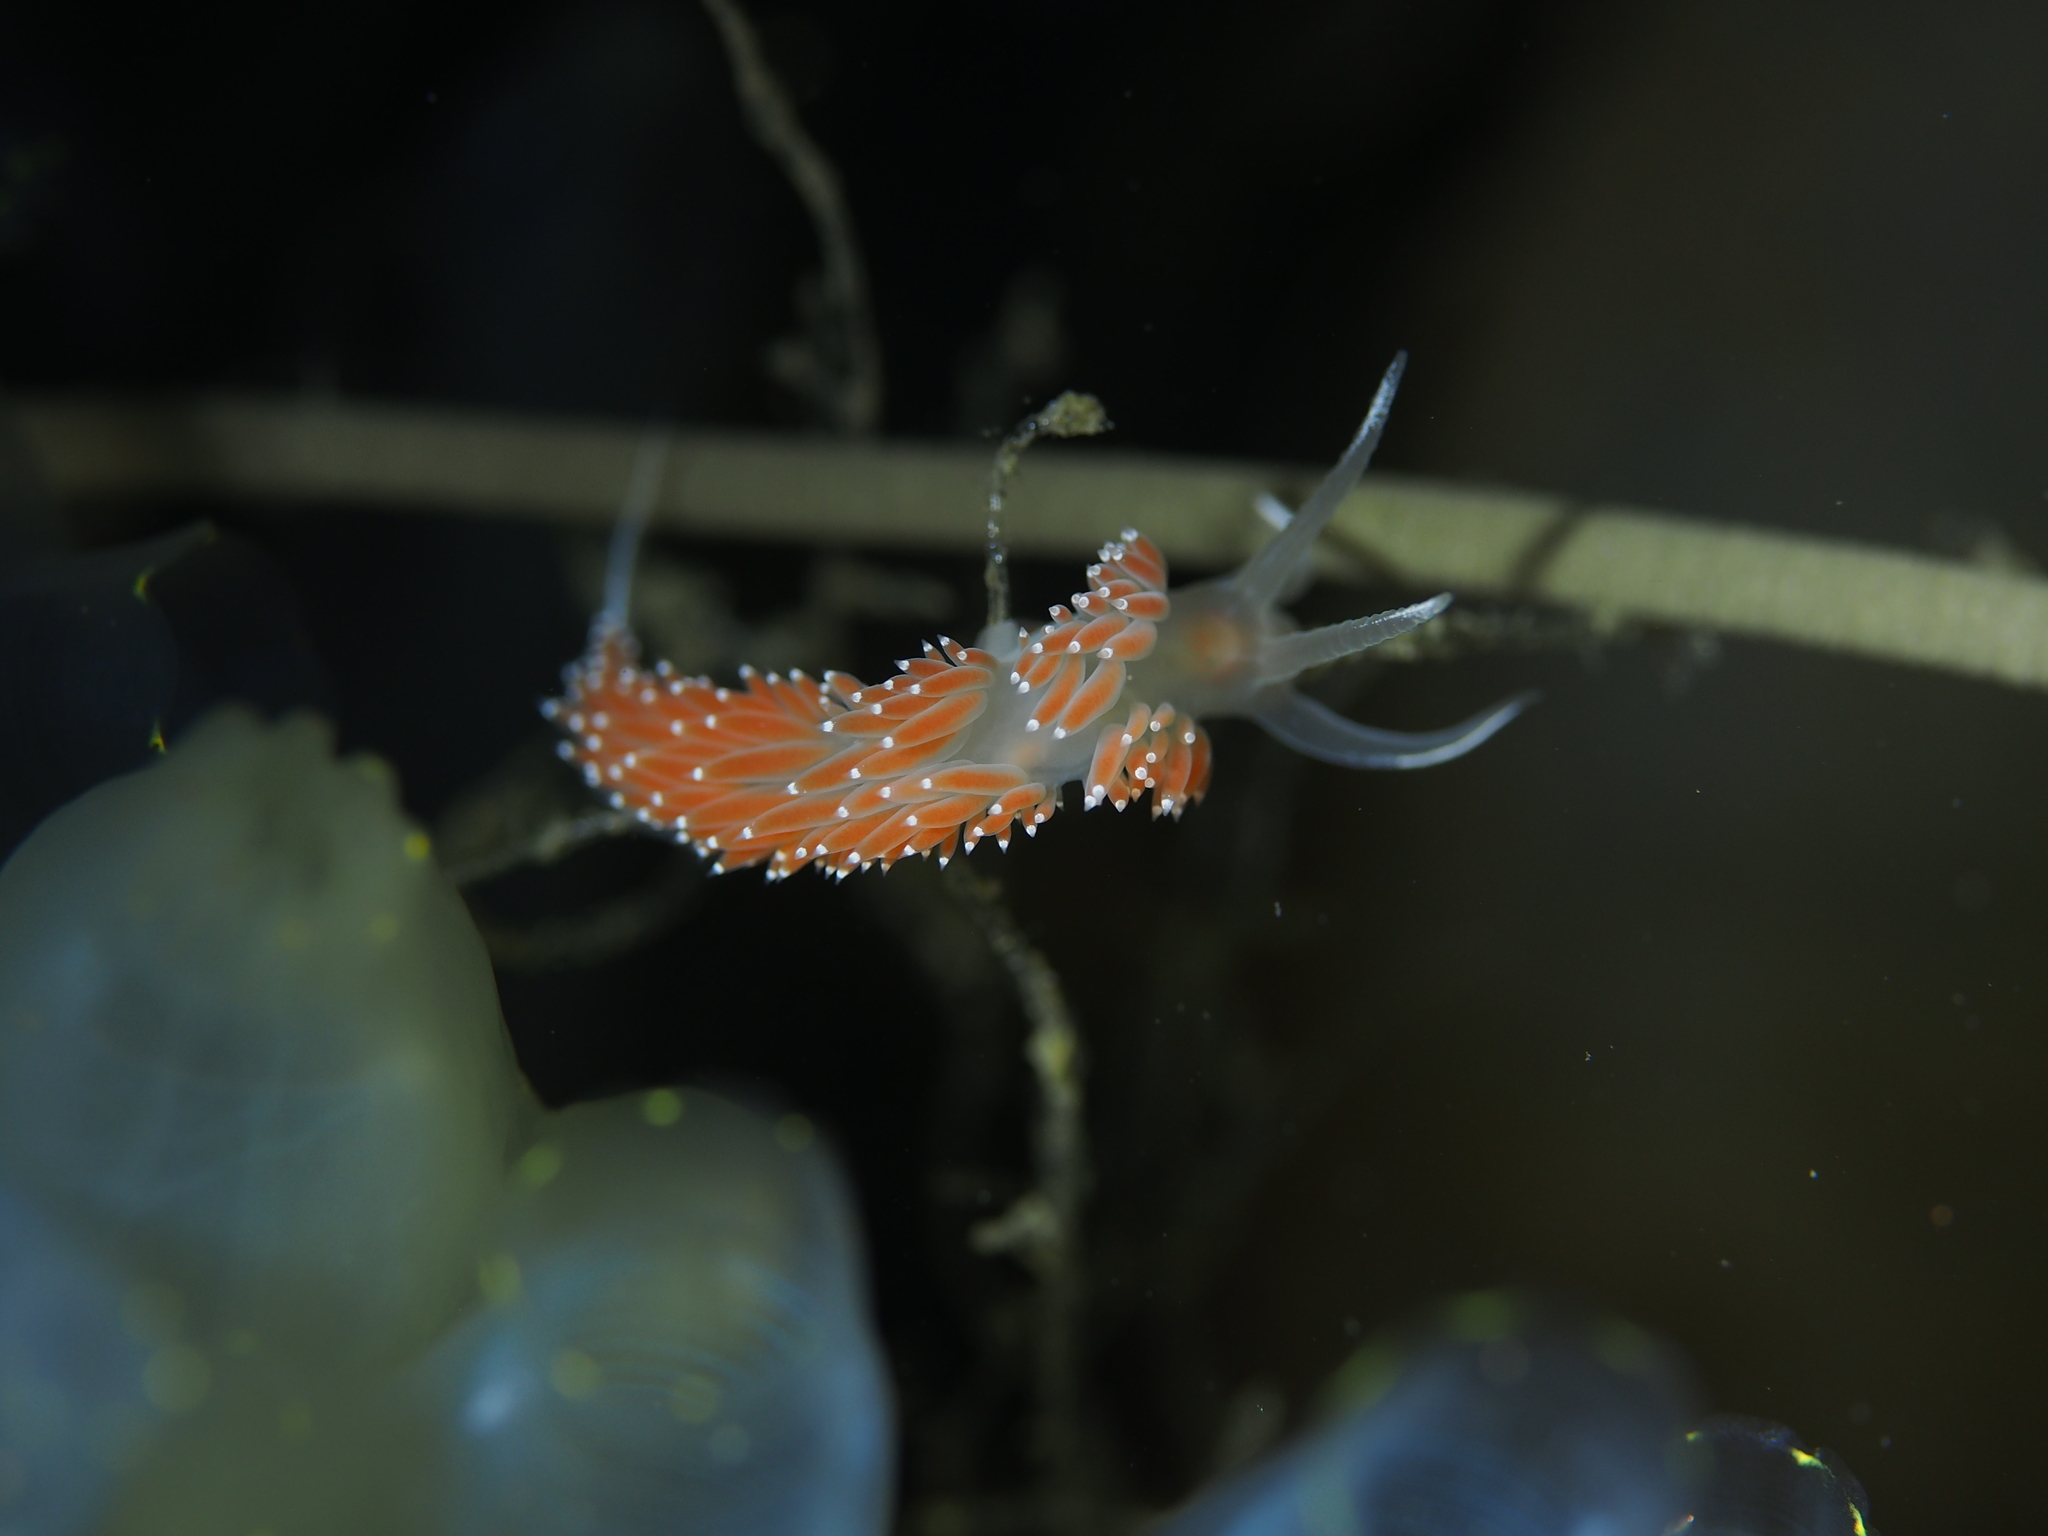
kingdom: Animalia
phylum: Mollusca
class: Gastropoda
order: Nudibranchia
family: Coryphellidae
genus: Coryphella
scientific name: Coryphella verrucosa
